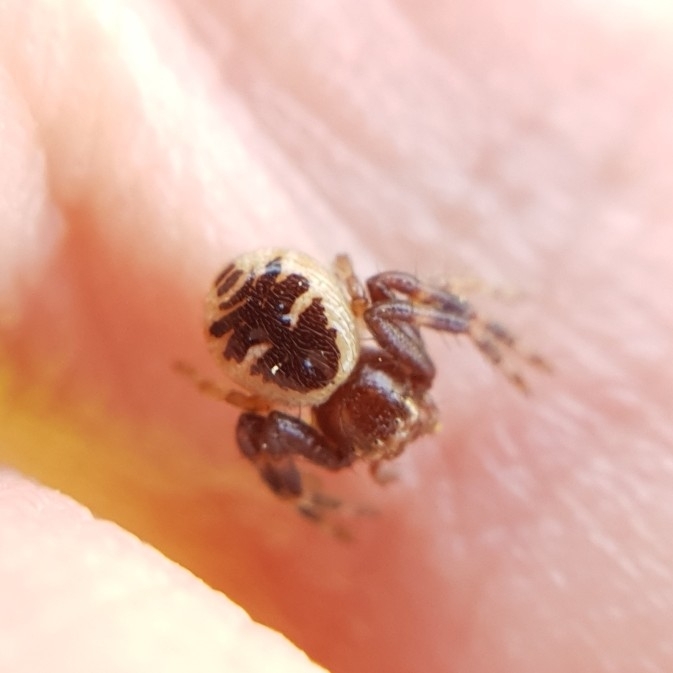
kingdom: Animalia
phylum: Arthropoda
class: Arachnida
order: Araneae
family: Thomisidae
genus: Synema
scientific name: Synema globosum
